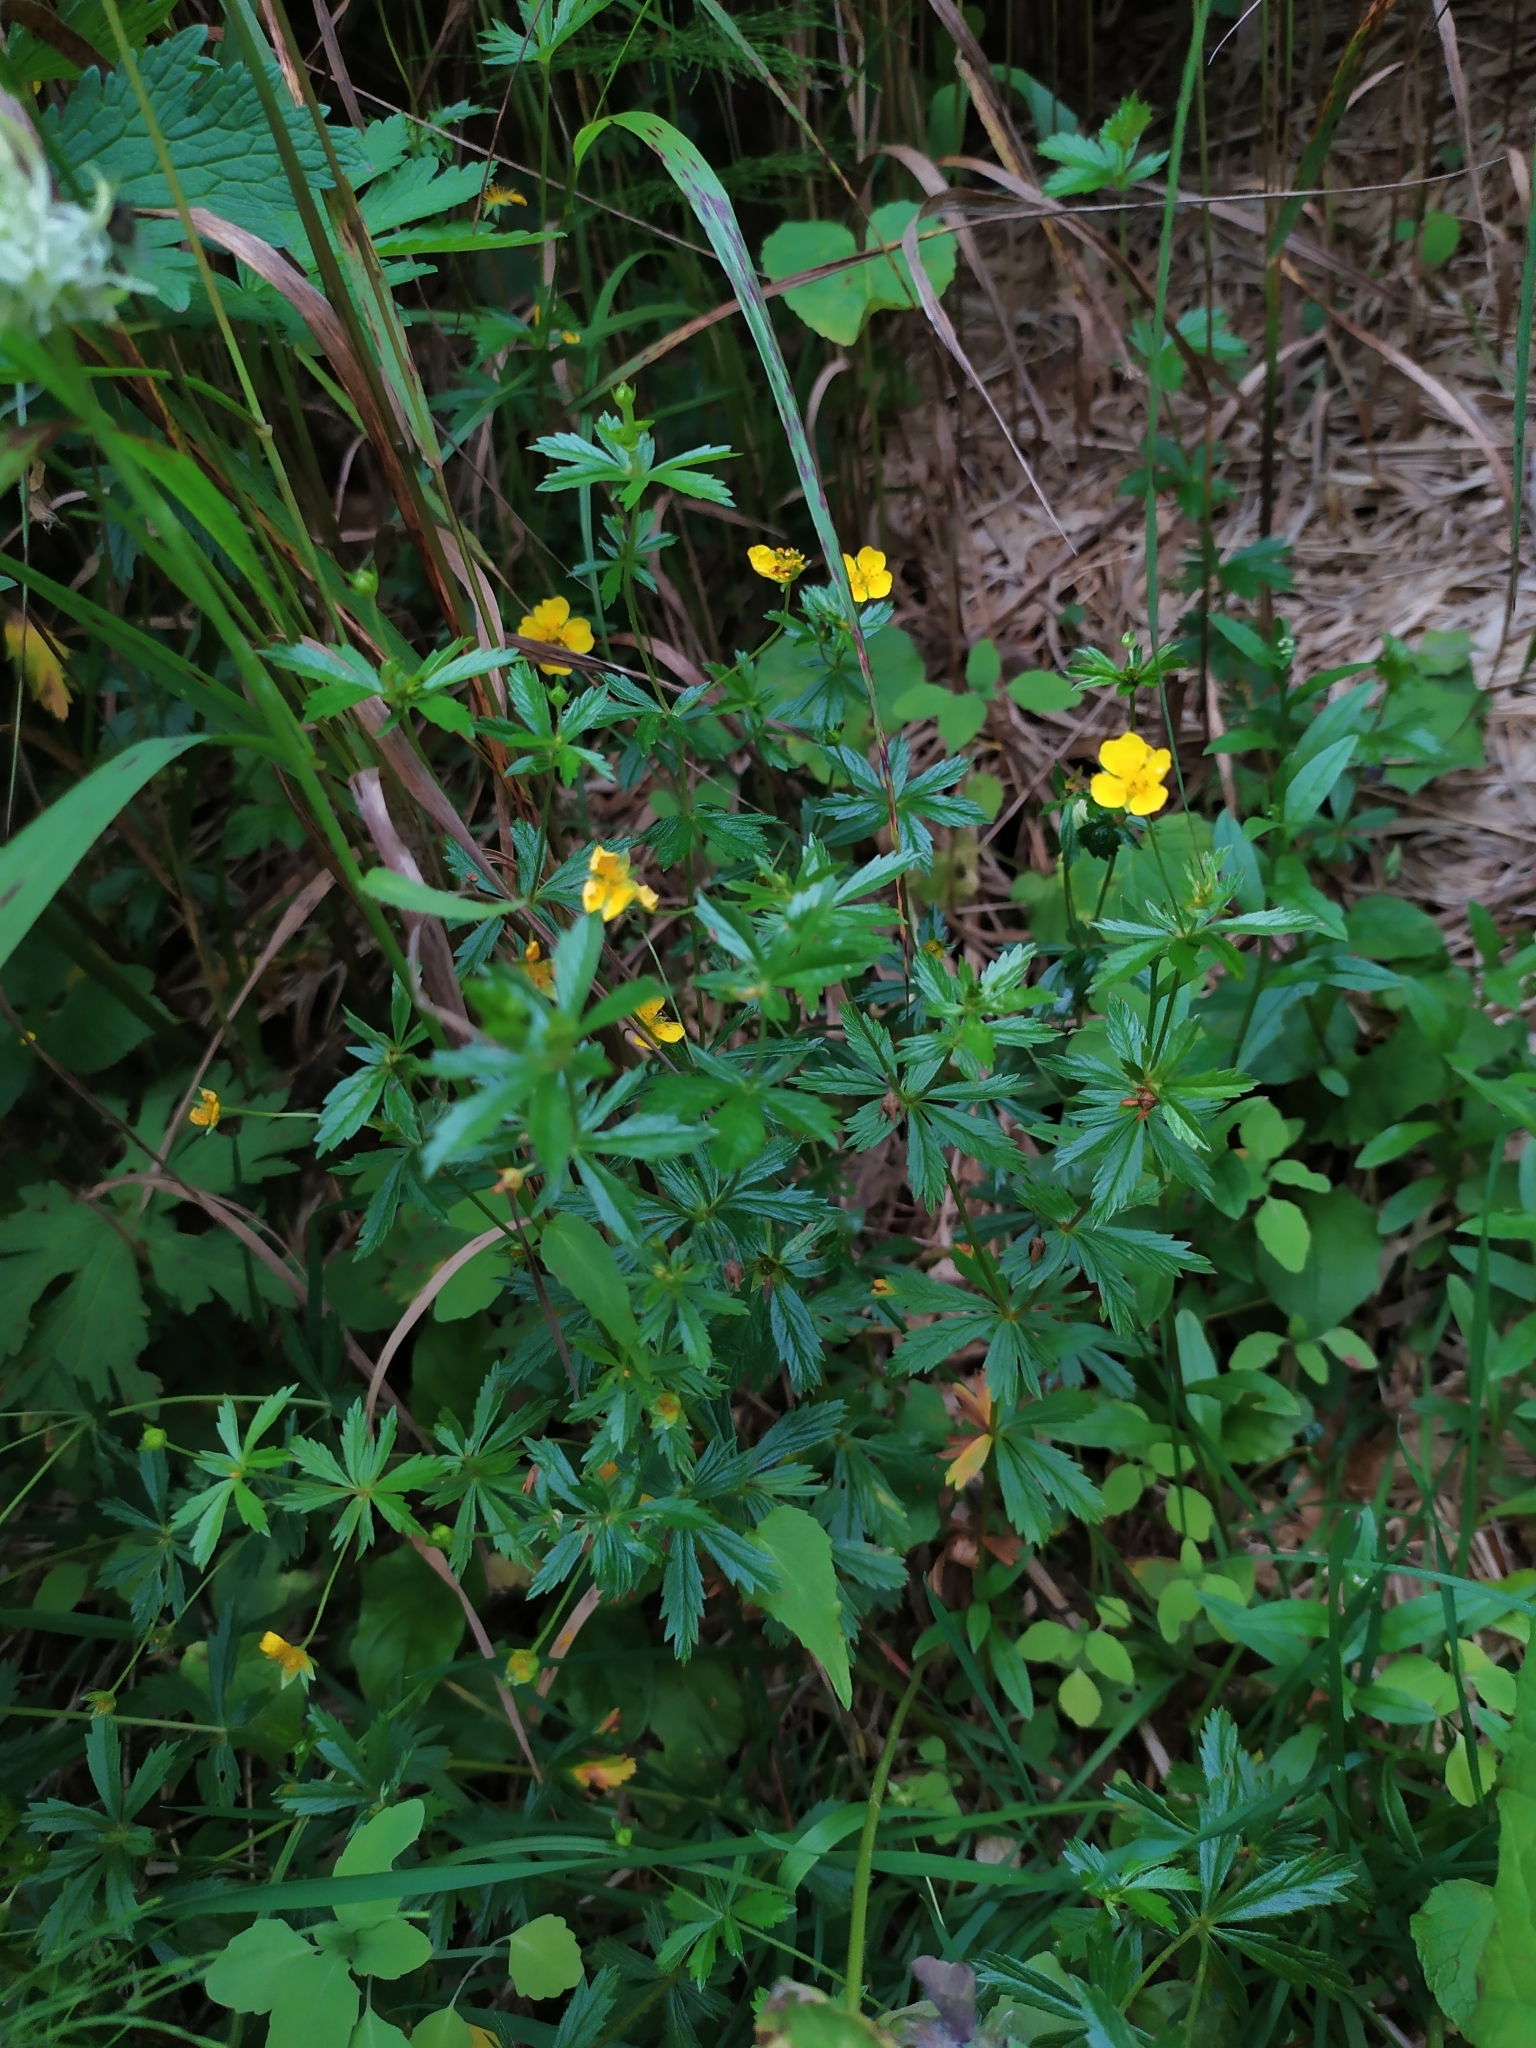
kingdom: Plantae
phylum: Tracheophyta
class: Magnoliopsida
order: Rosales
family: Rosaceae
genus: Potentilla
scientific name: Potentilla erecta
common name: Tormentil
